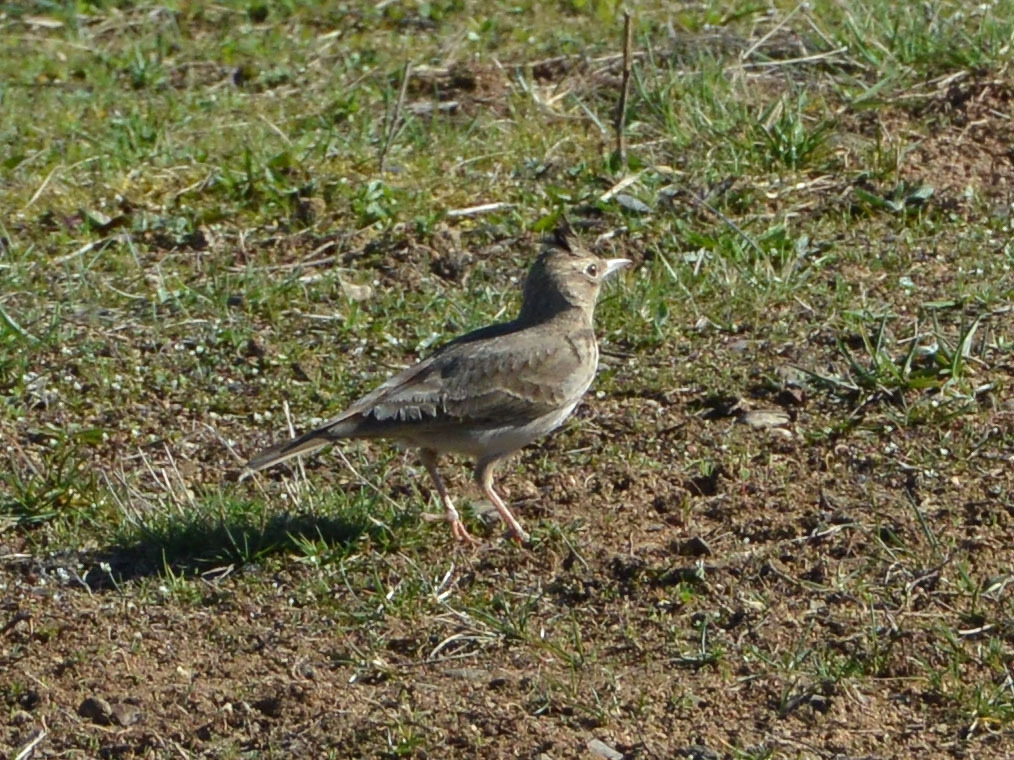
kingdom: Animalia
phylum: Chordata
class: Aves
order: Passeriformes
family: Alaudidae
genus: Galerida
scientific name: Galerida cristata
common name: Crested lark
